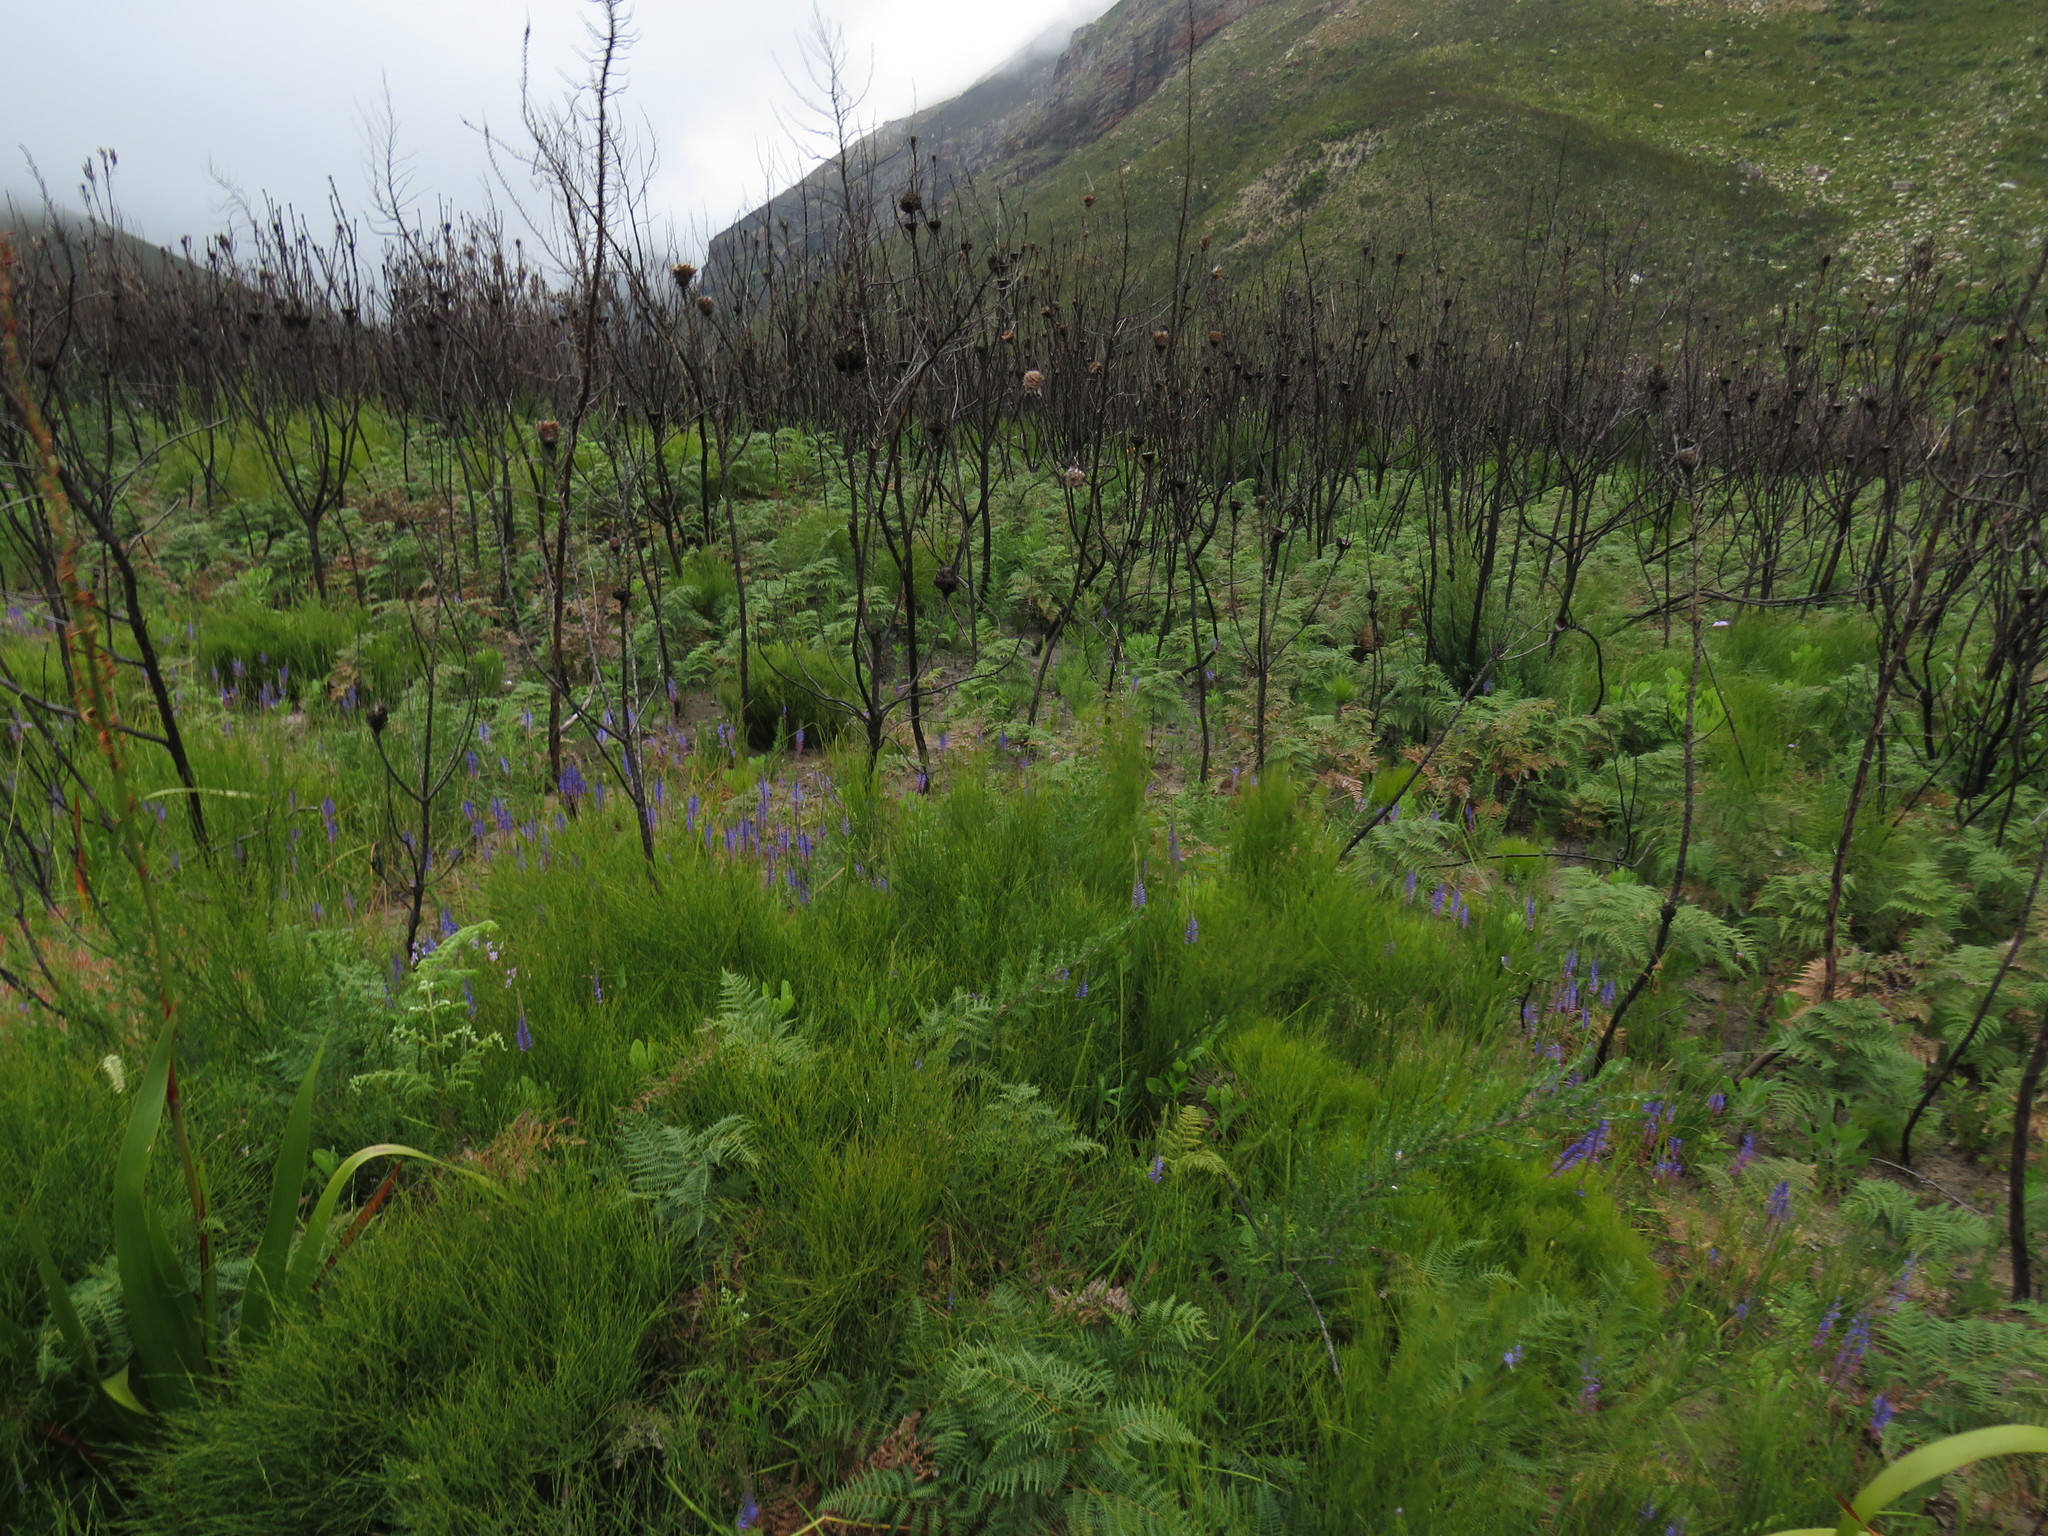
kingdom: Plantae
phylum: Tracheophyta
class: Liliopsida
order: Asparagales
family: Iridaceae
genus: Micranthus
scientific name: Micranthus plantagineus
